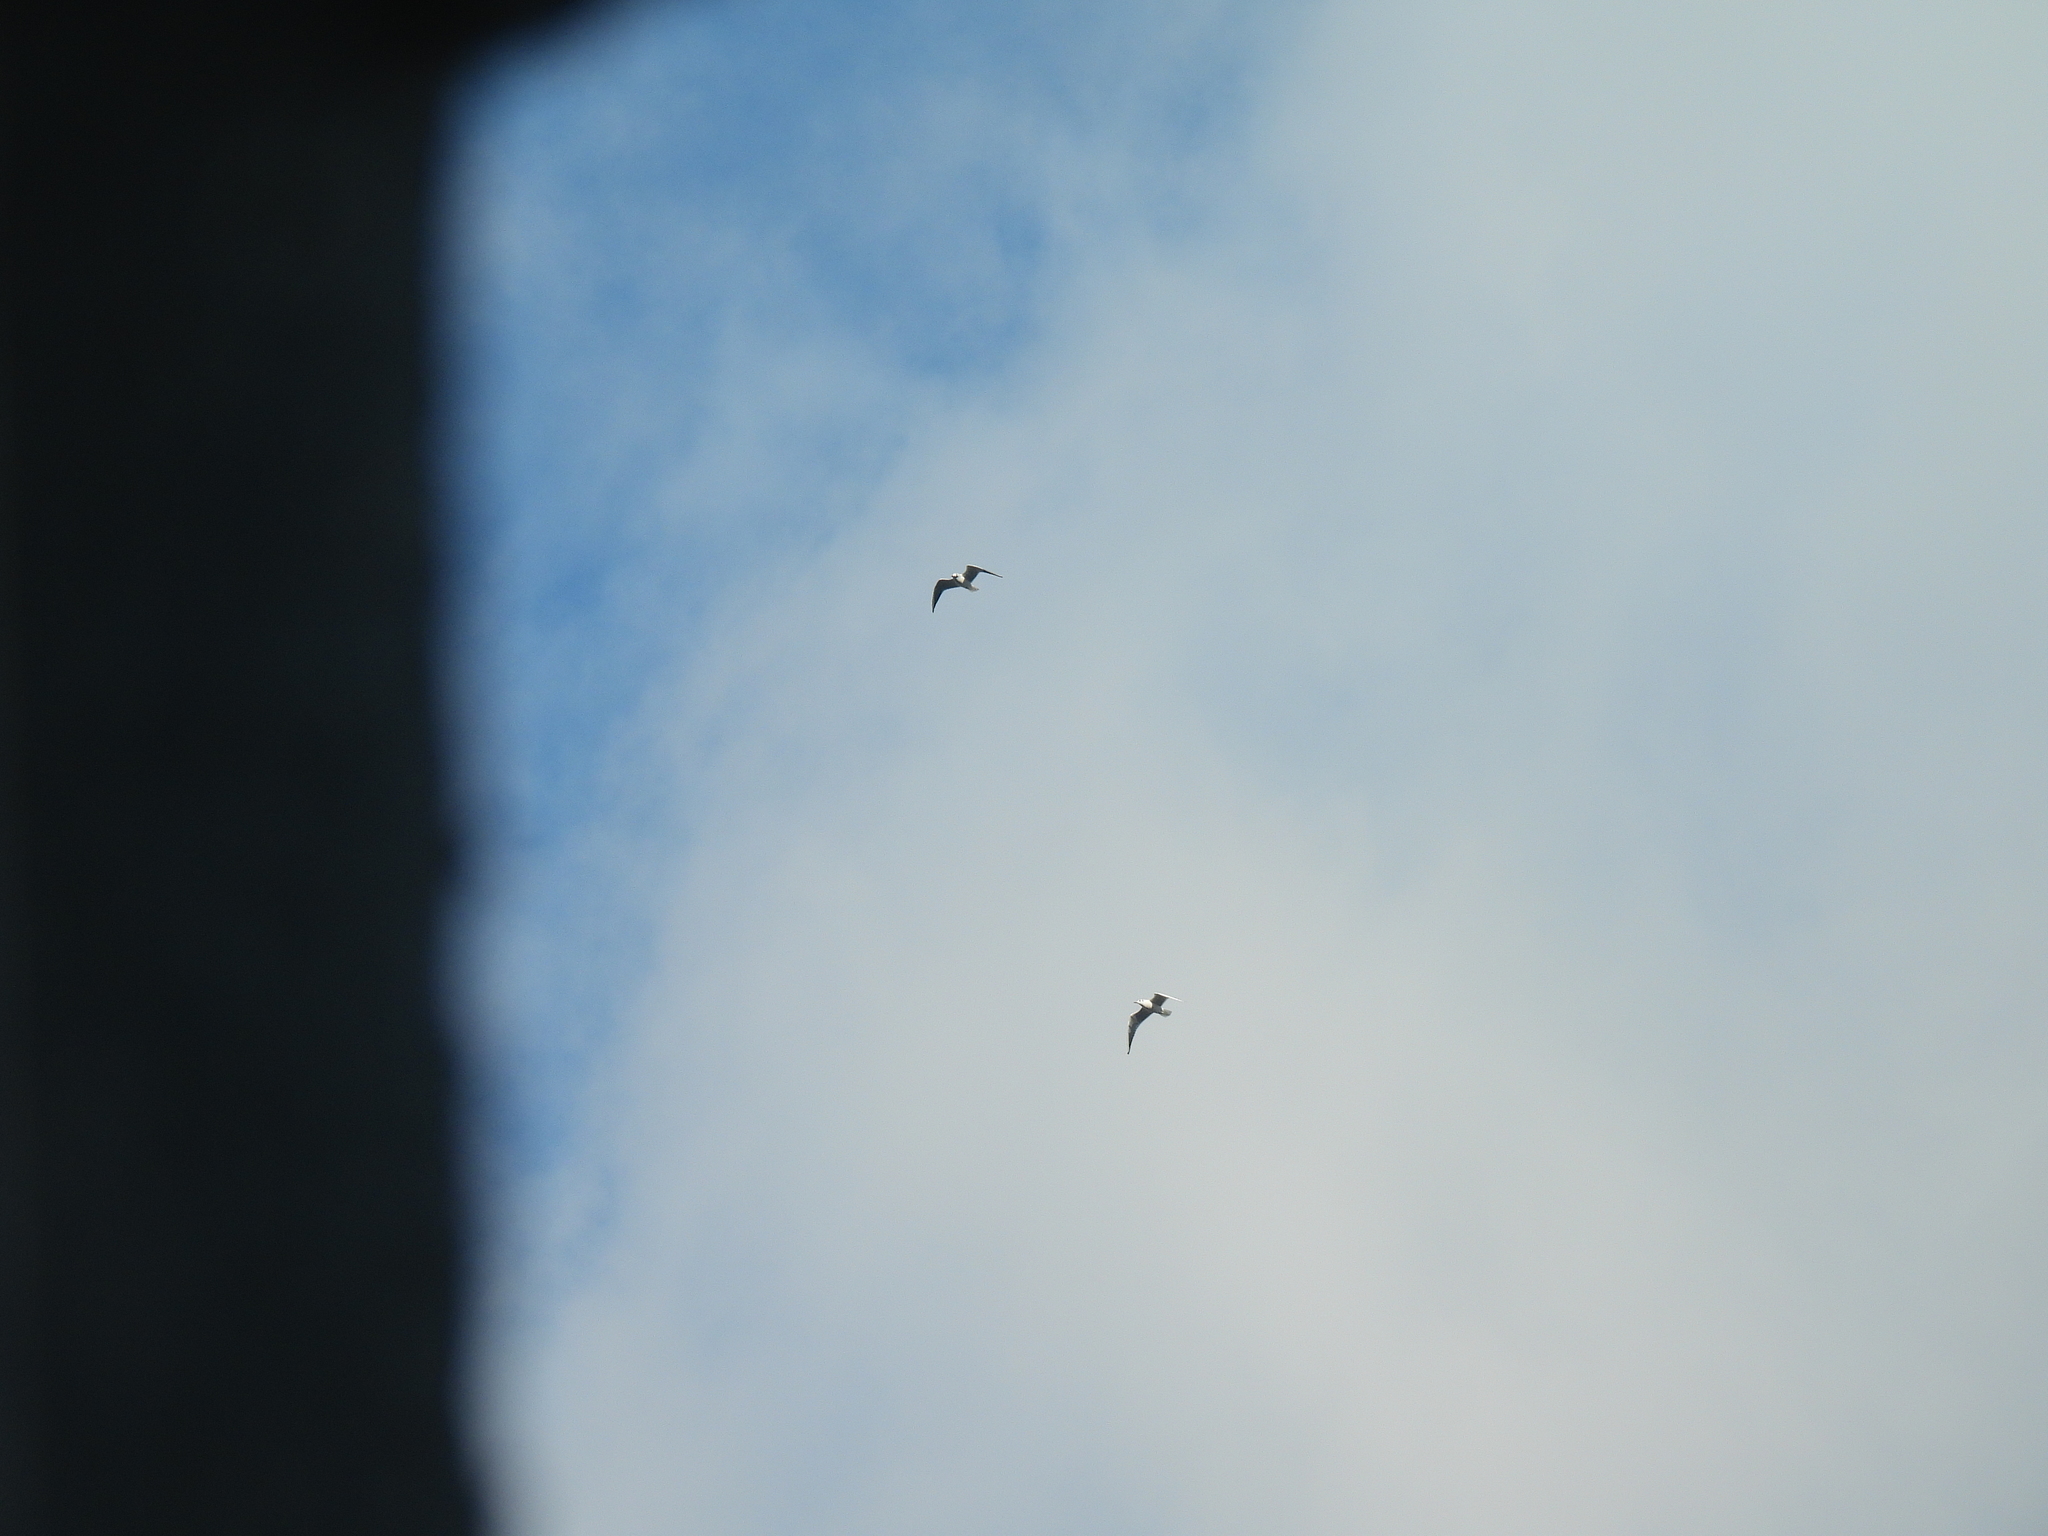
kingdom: Animalia
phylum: Chordata
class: Aves
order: Charadriiformes
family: Laridae
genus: Chroicocephalus
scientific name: Chroicocephalus ridibundus
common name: Black-headed gull
